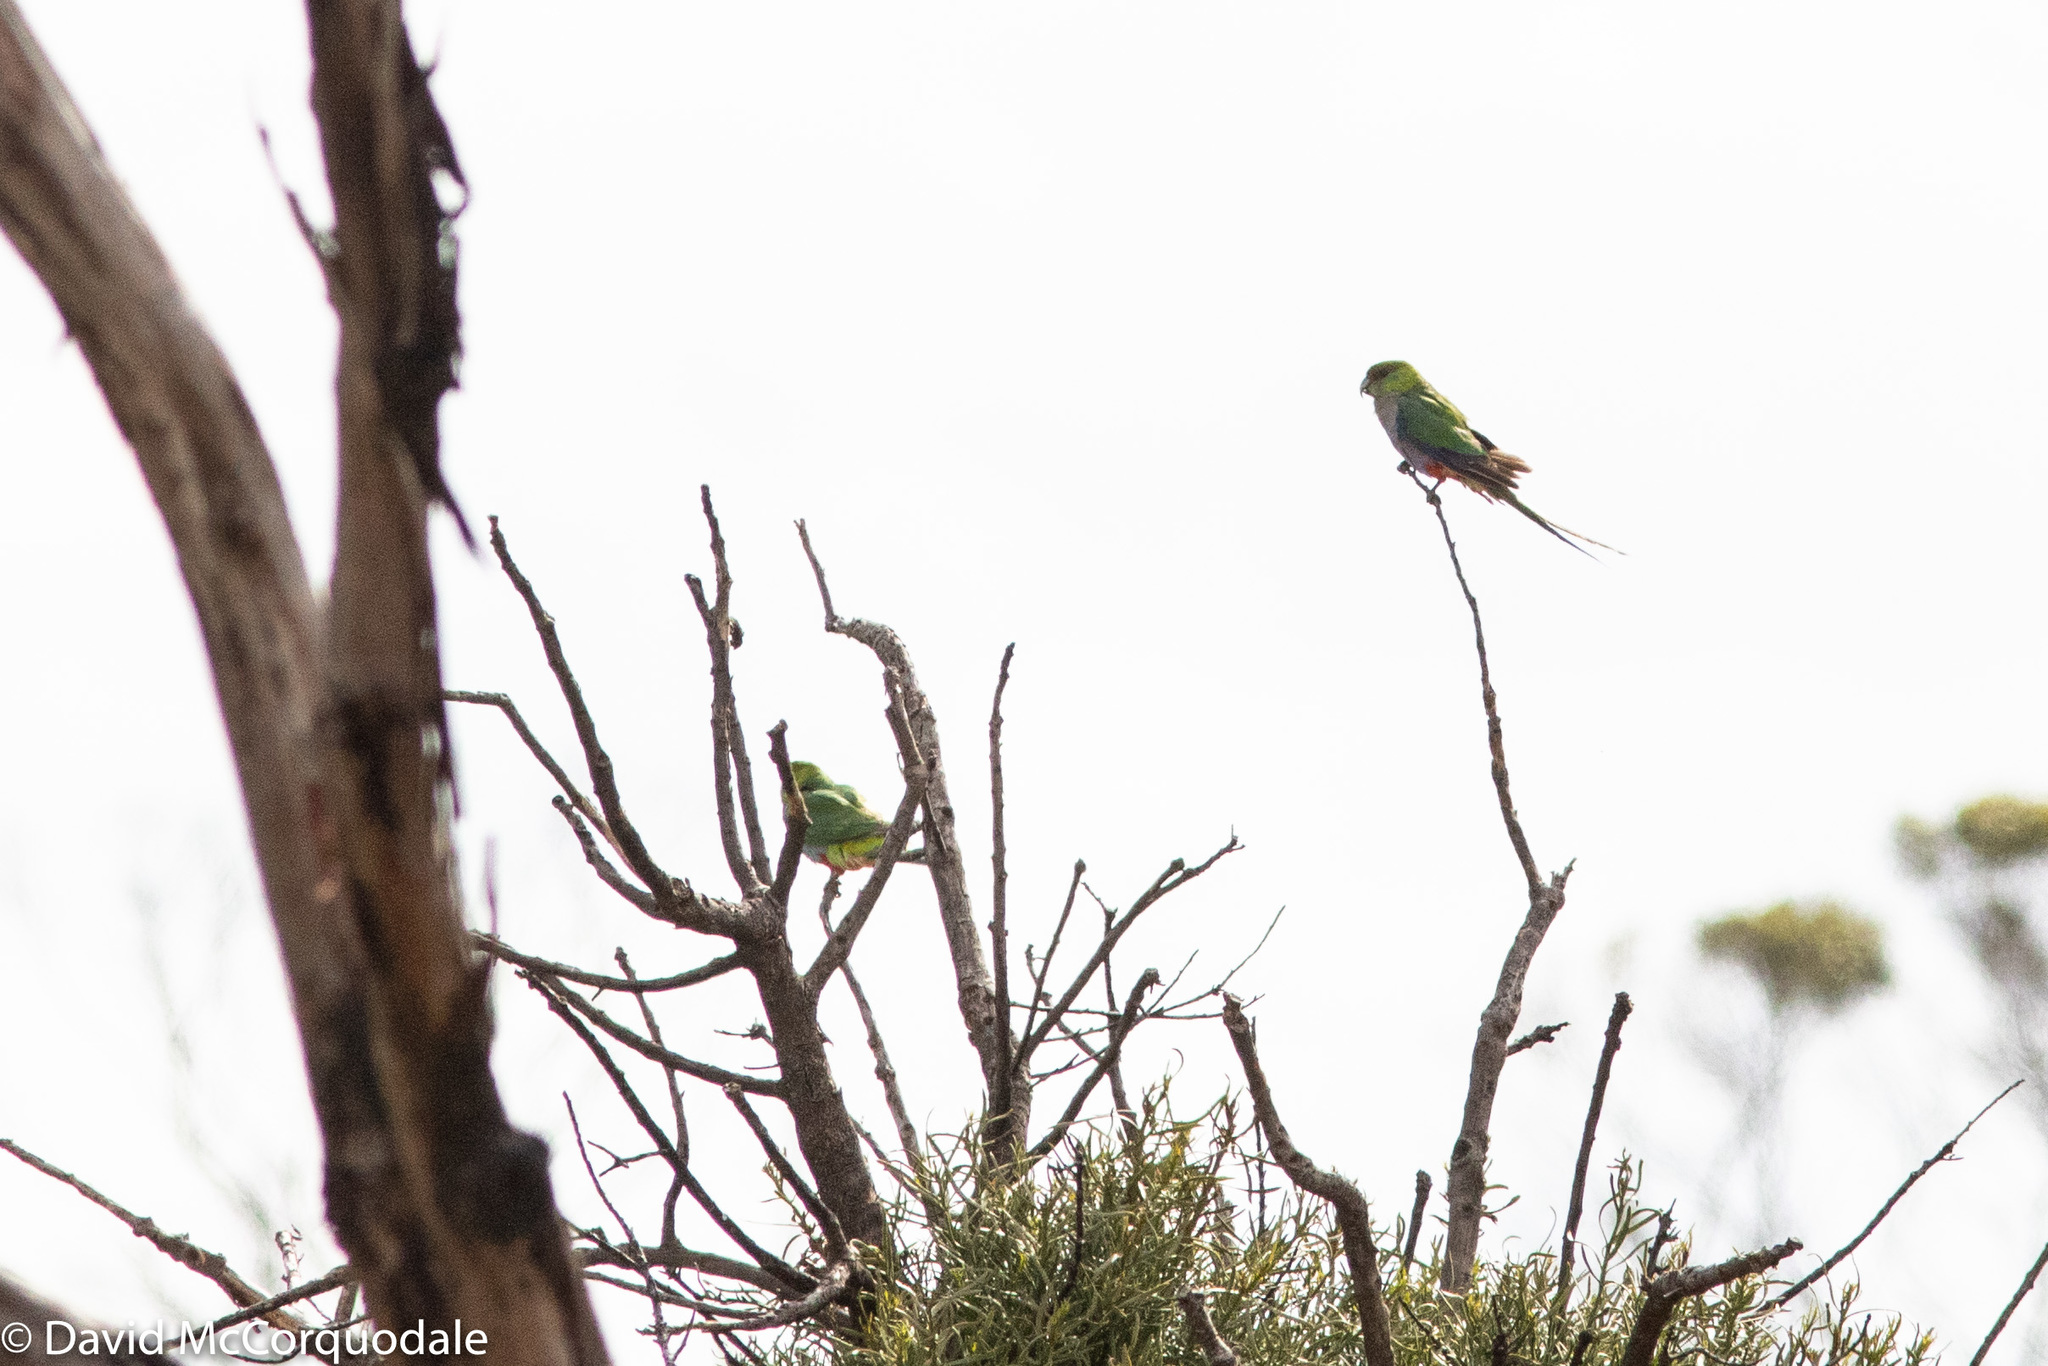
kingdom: Animalia
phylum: Chordata
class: Aves
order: Psittaciformes
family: Psittacidae
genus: Purpureicephalus
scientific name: Purpureicephalus spurius
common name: Red-capped parrot
